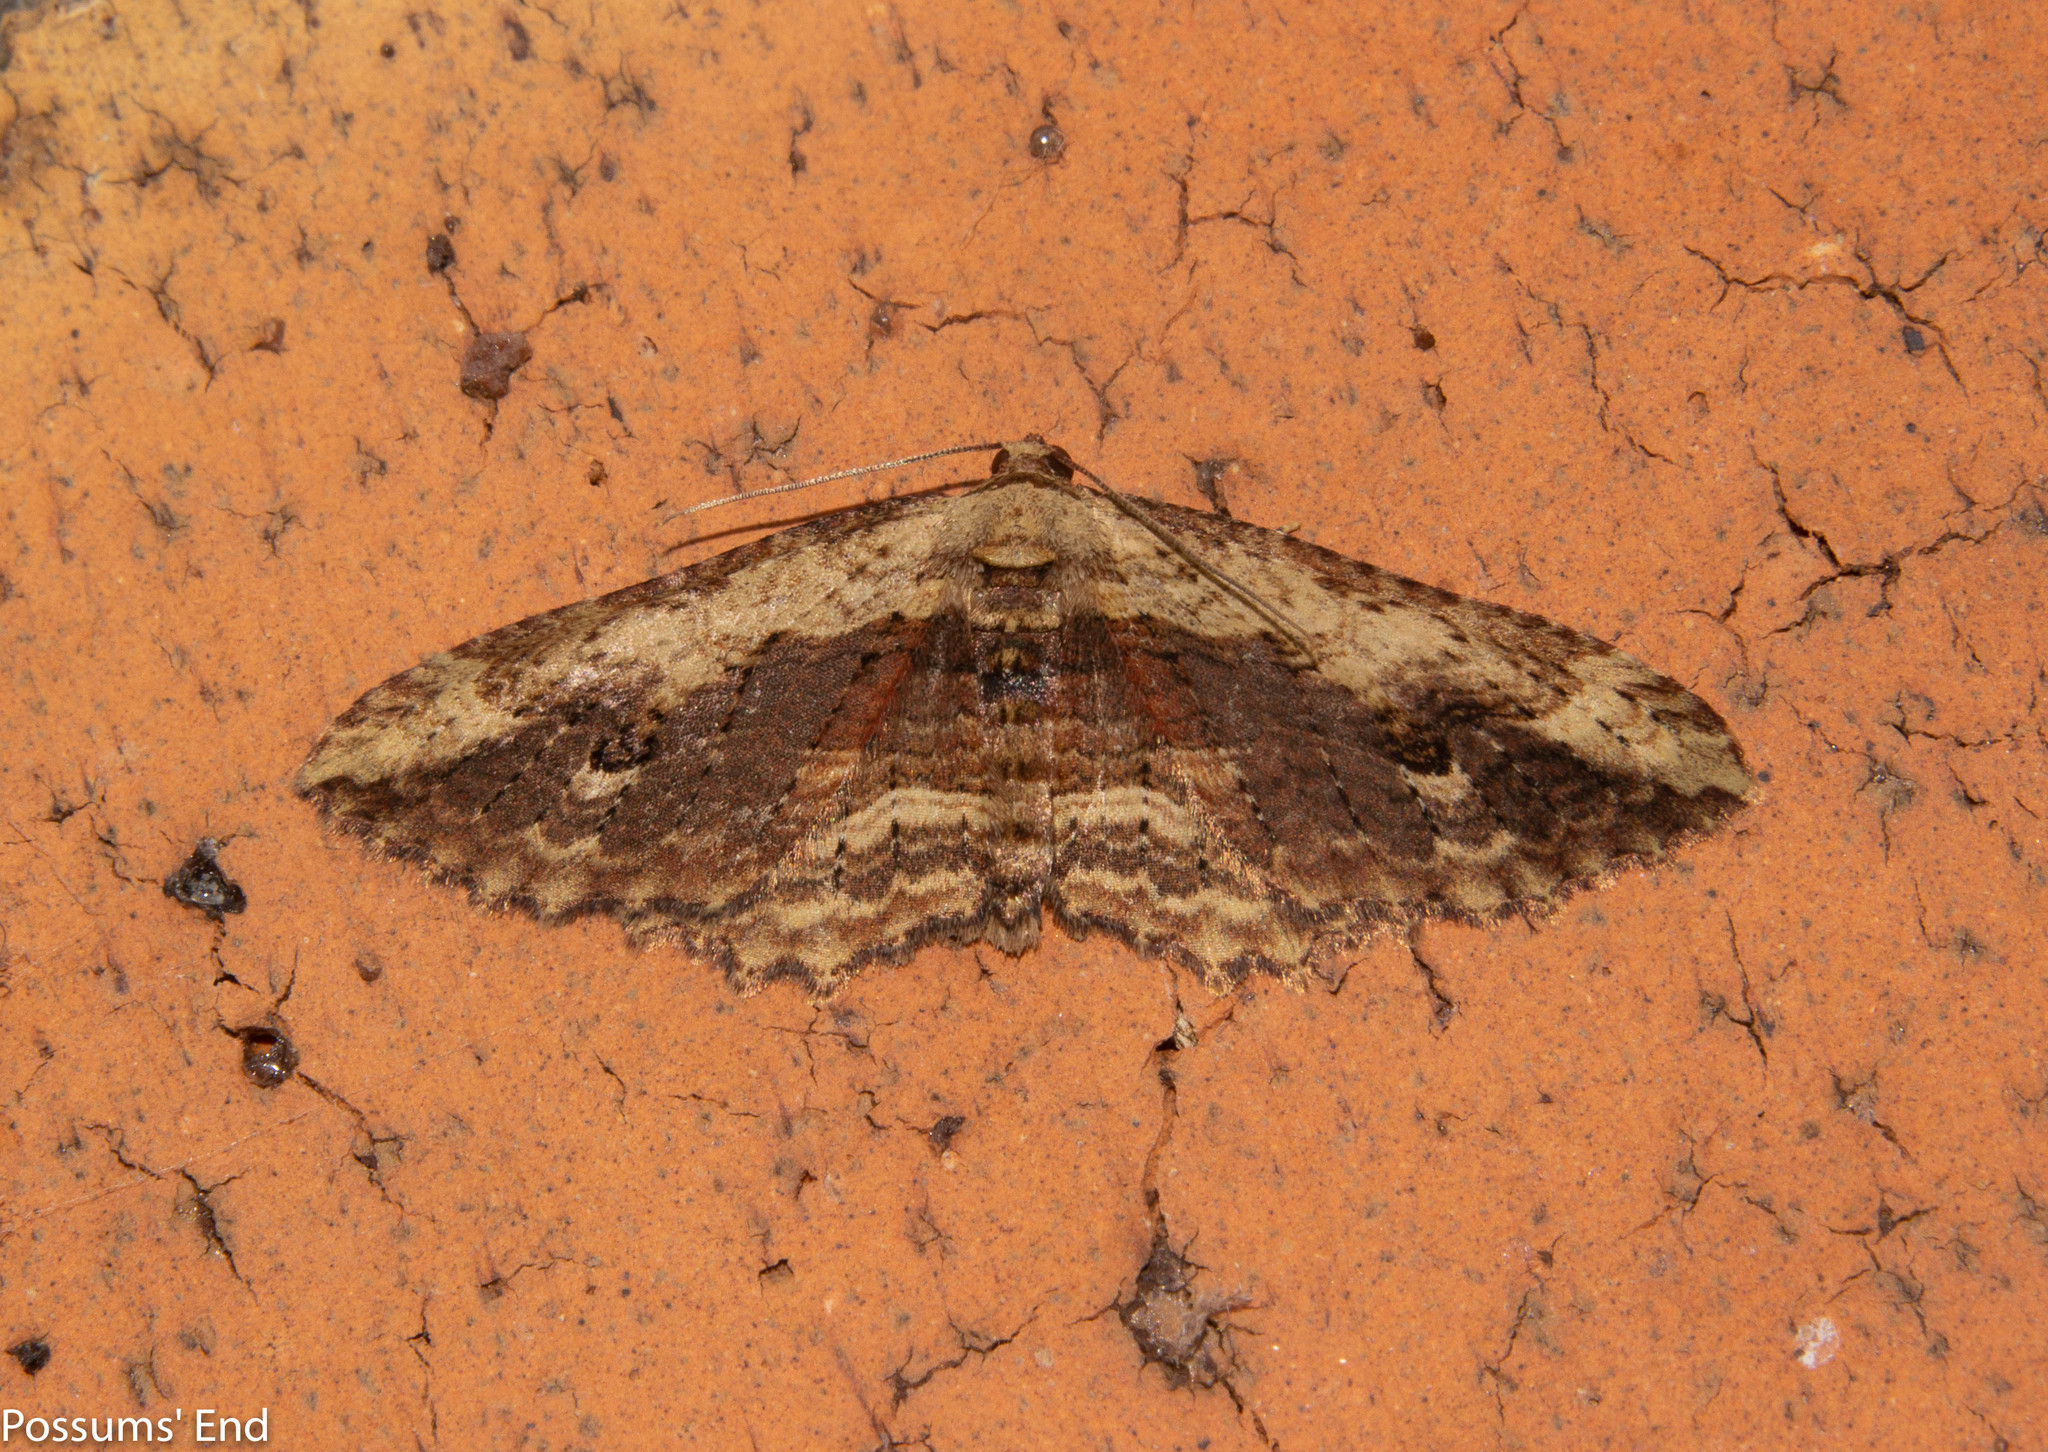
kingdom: Animalia
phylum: Arthropoda
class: Insecta
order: Lepidoptera
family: Geometridae
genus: Austrocidaria
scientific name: Austrocidaria bipartita
